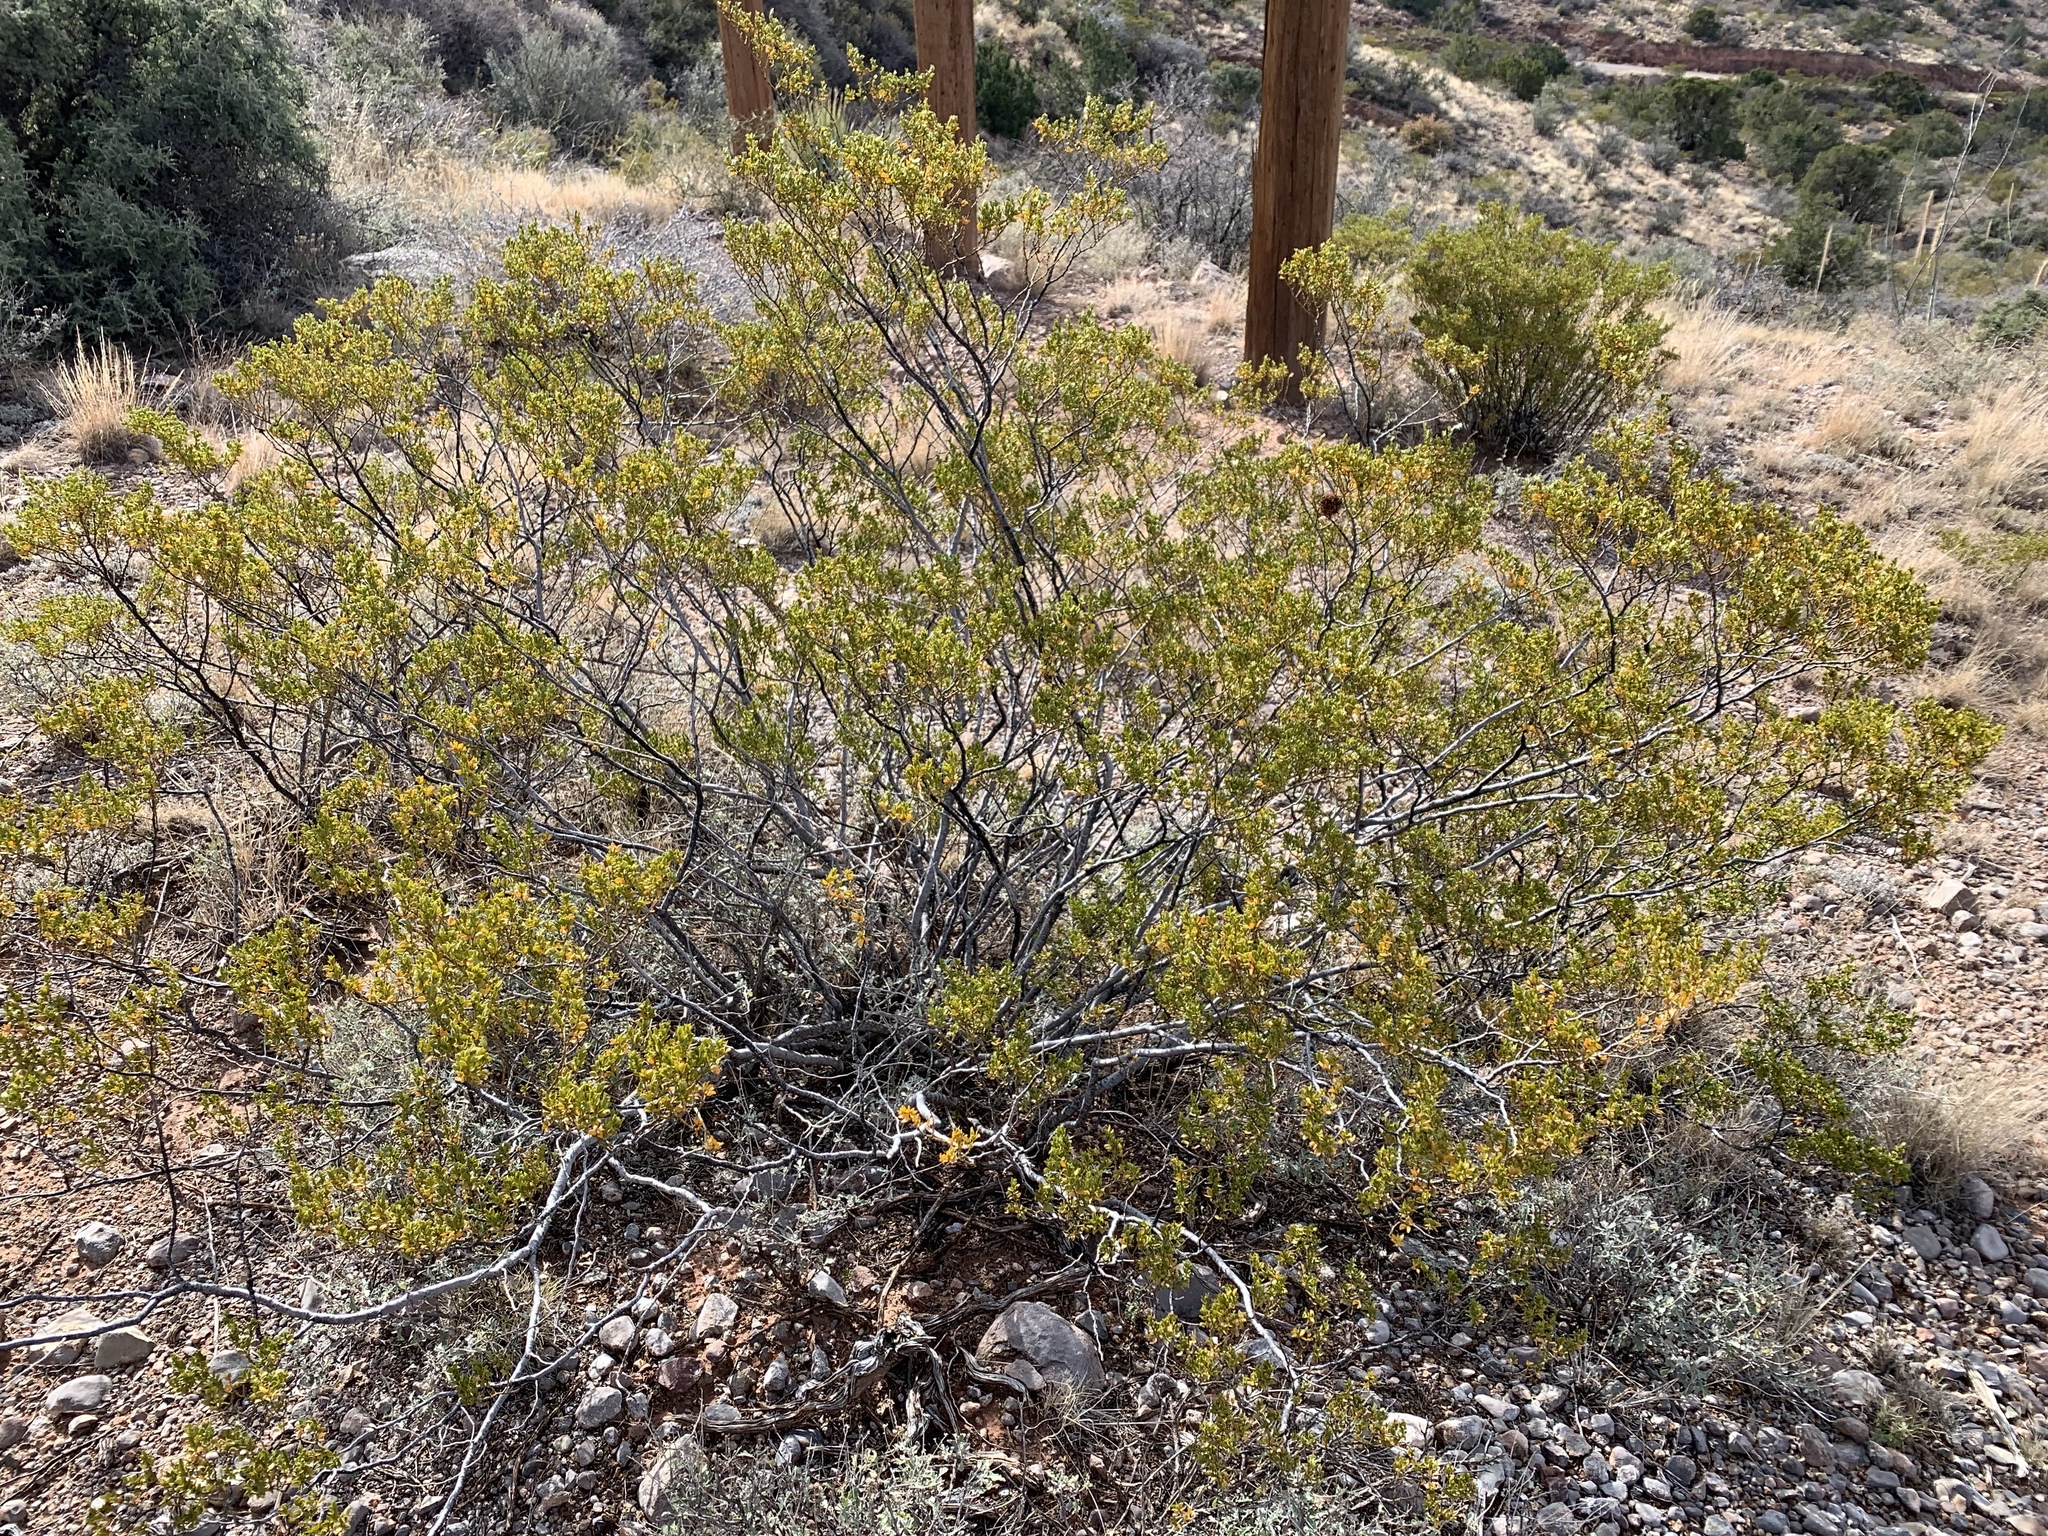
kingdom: Plantae
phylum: Tracheophyta
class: Magnoliopsida
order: Zygophyllales
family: Zygophyllaceae
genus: Larrea
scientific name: Larrea tridentata
